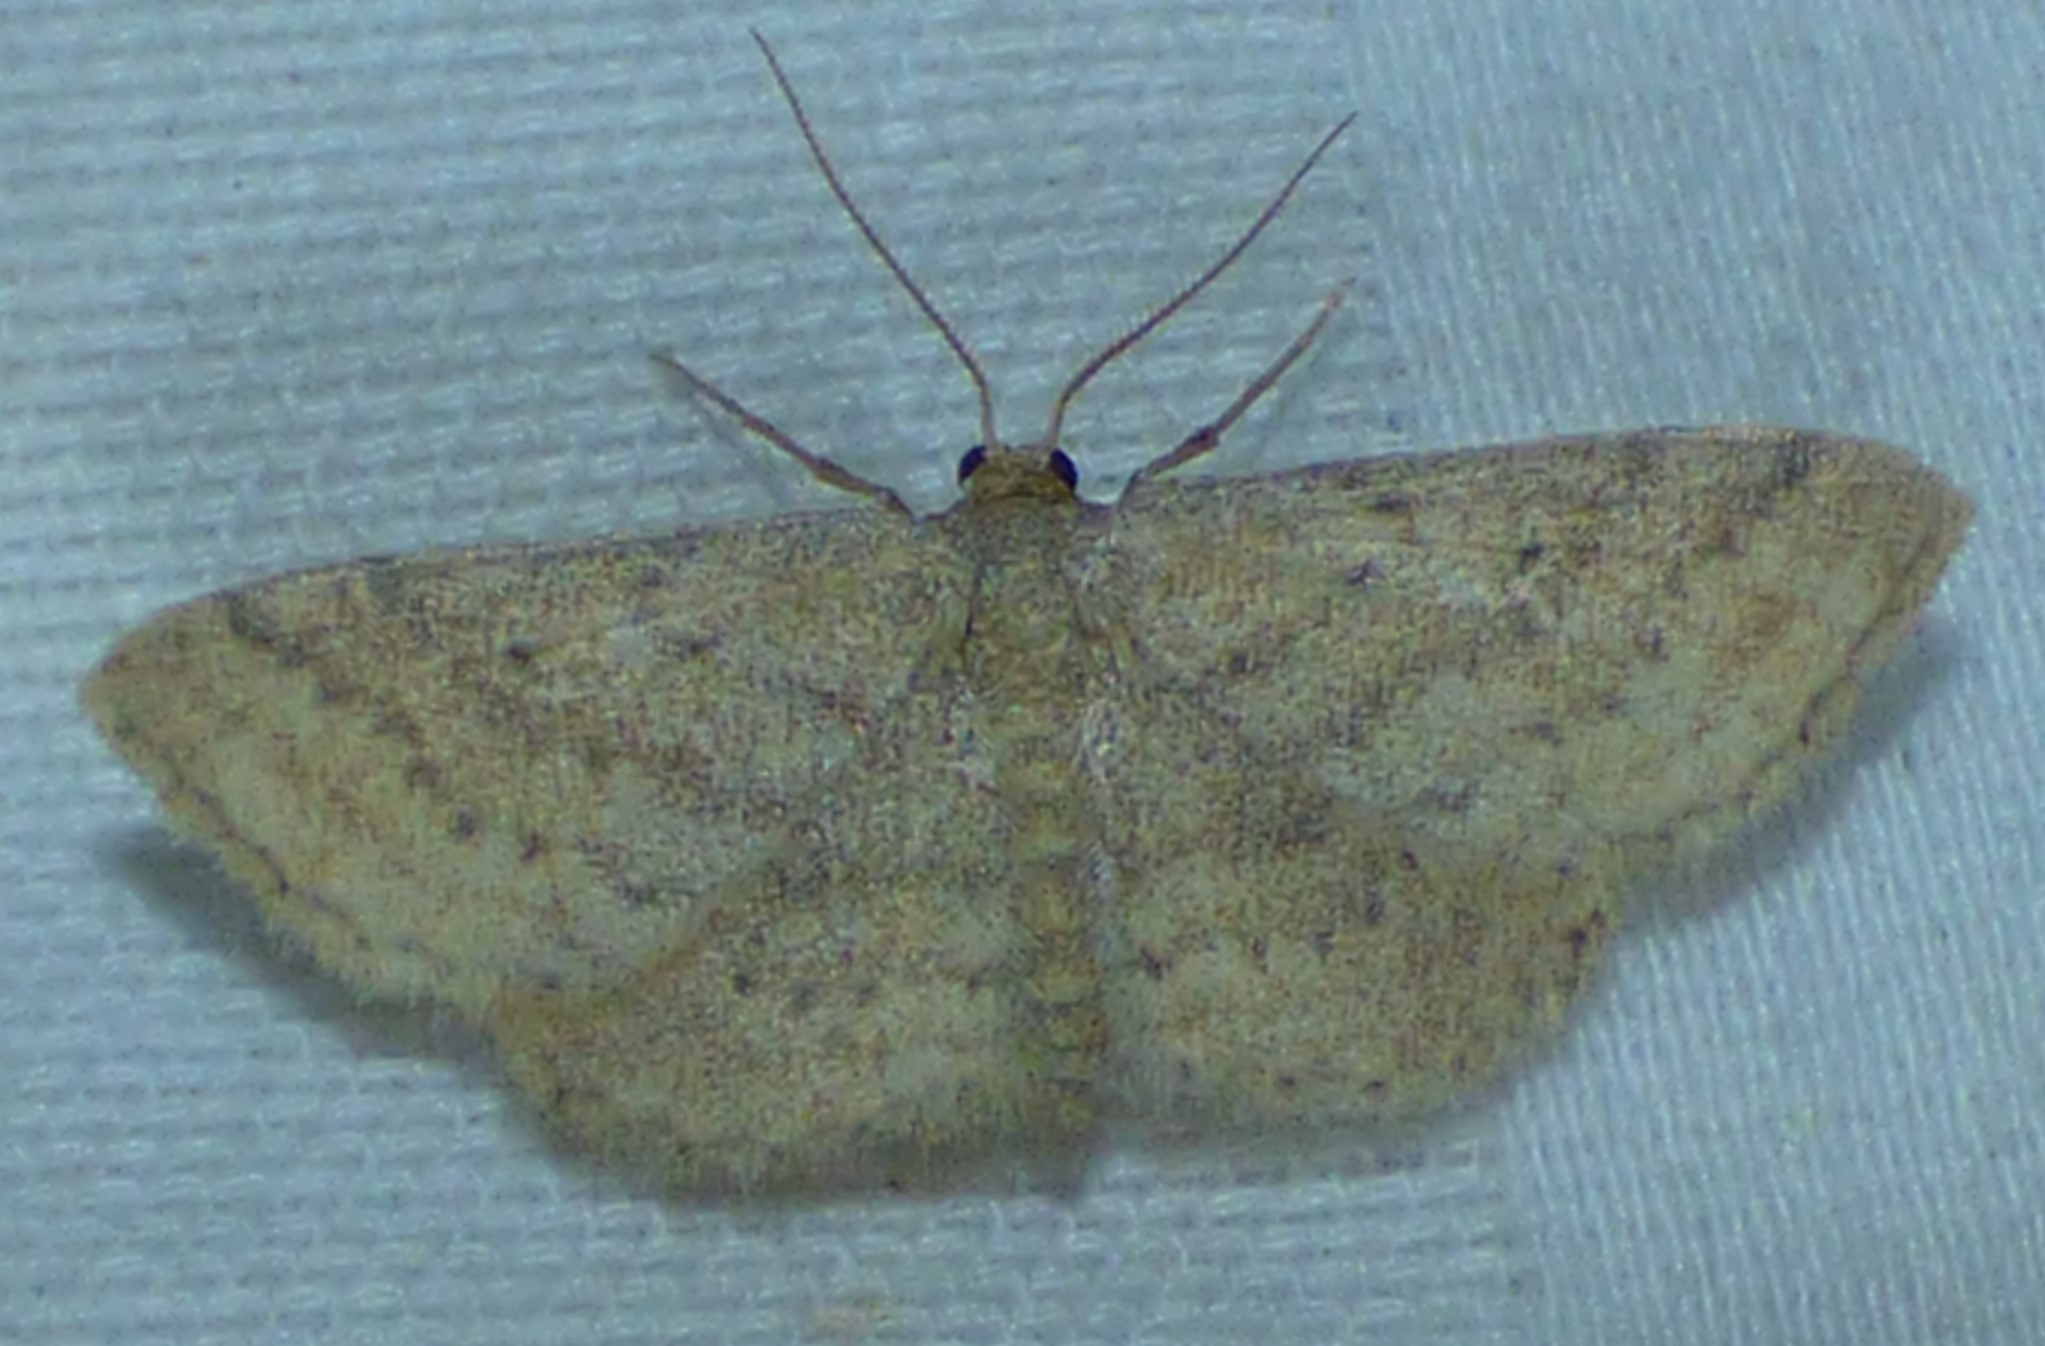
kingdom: Animalia
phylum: Arthropoda
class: Insecta
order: Lepidoptera
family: Geometridae
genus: Lobocleta
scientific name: Lobocleta ossularia
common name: Drab brown wave
